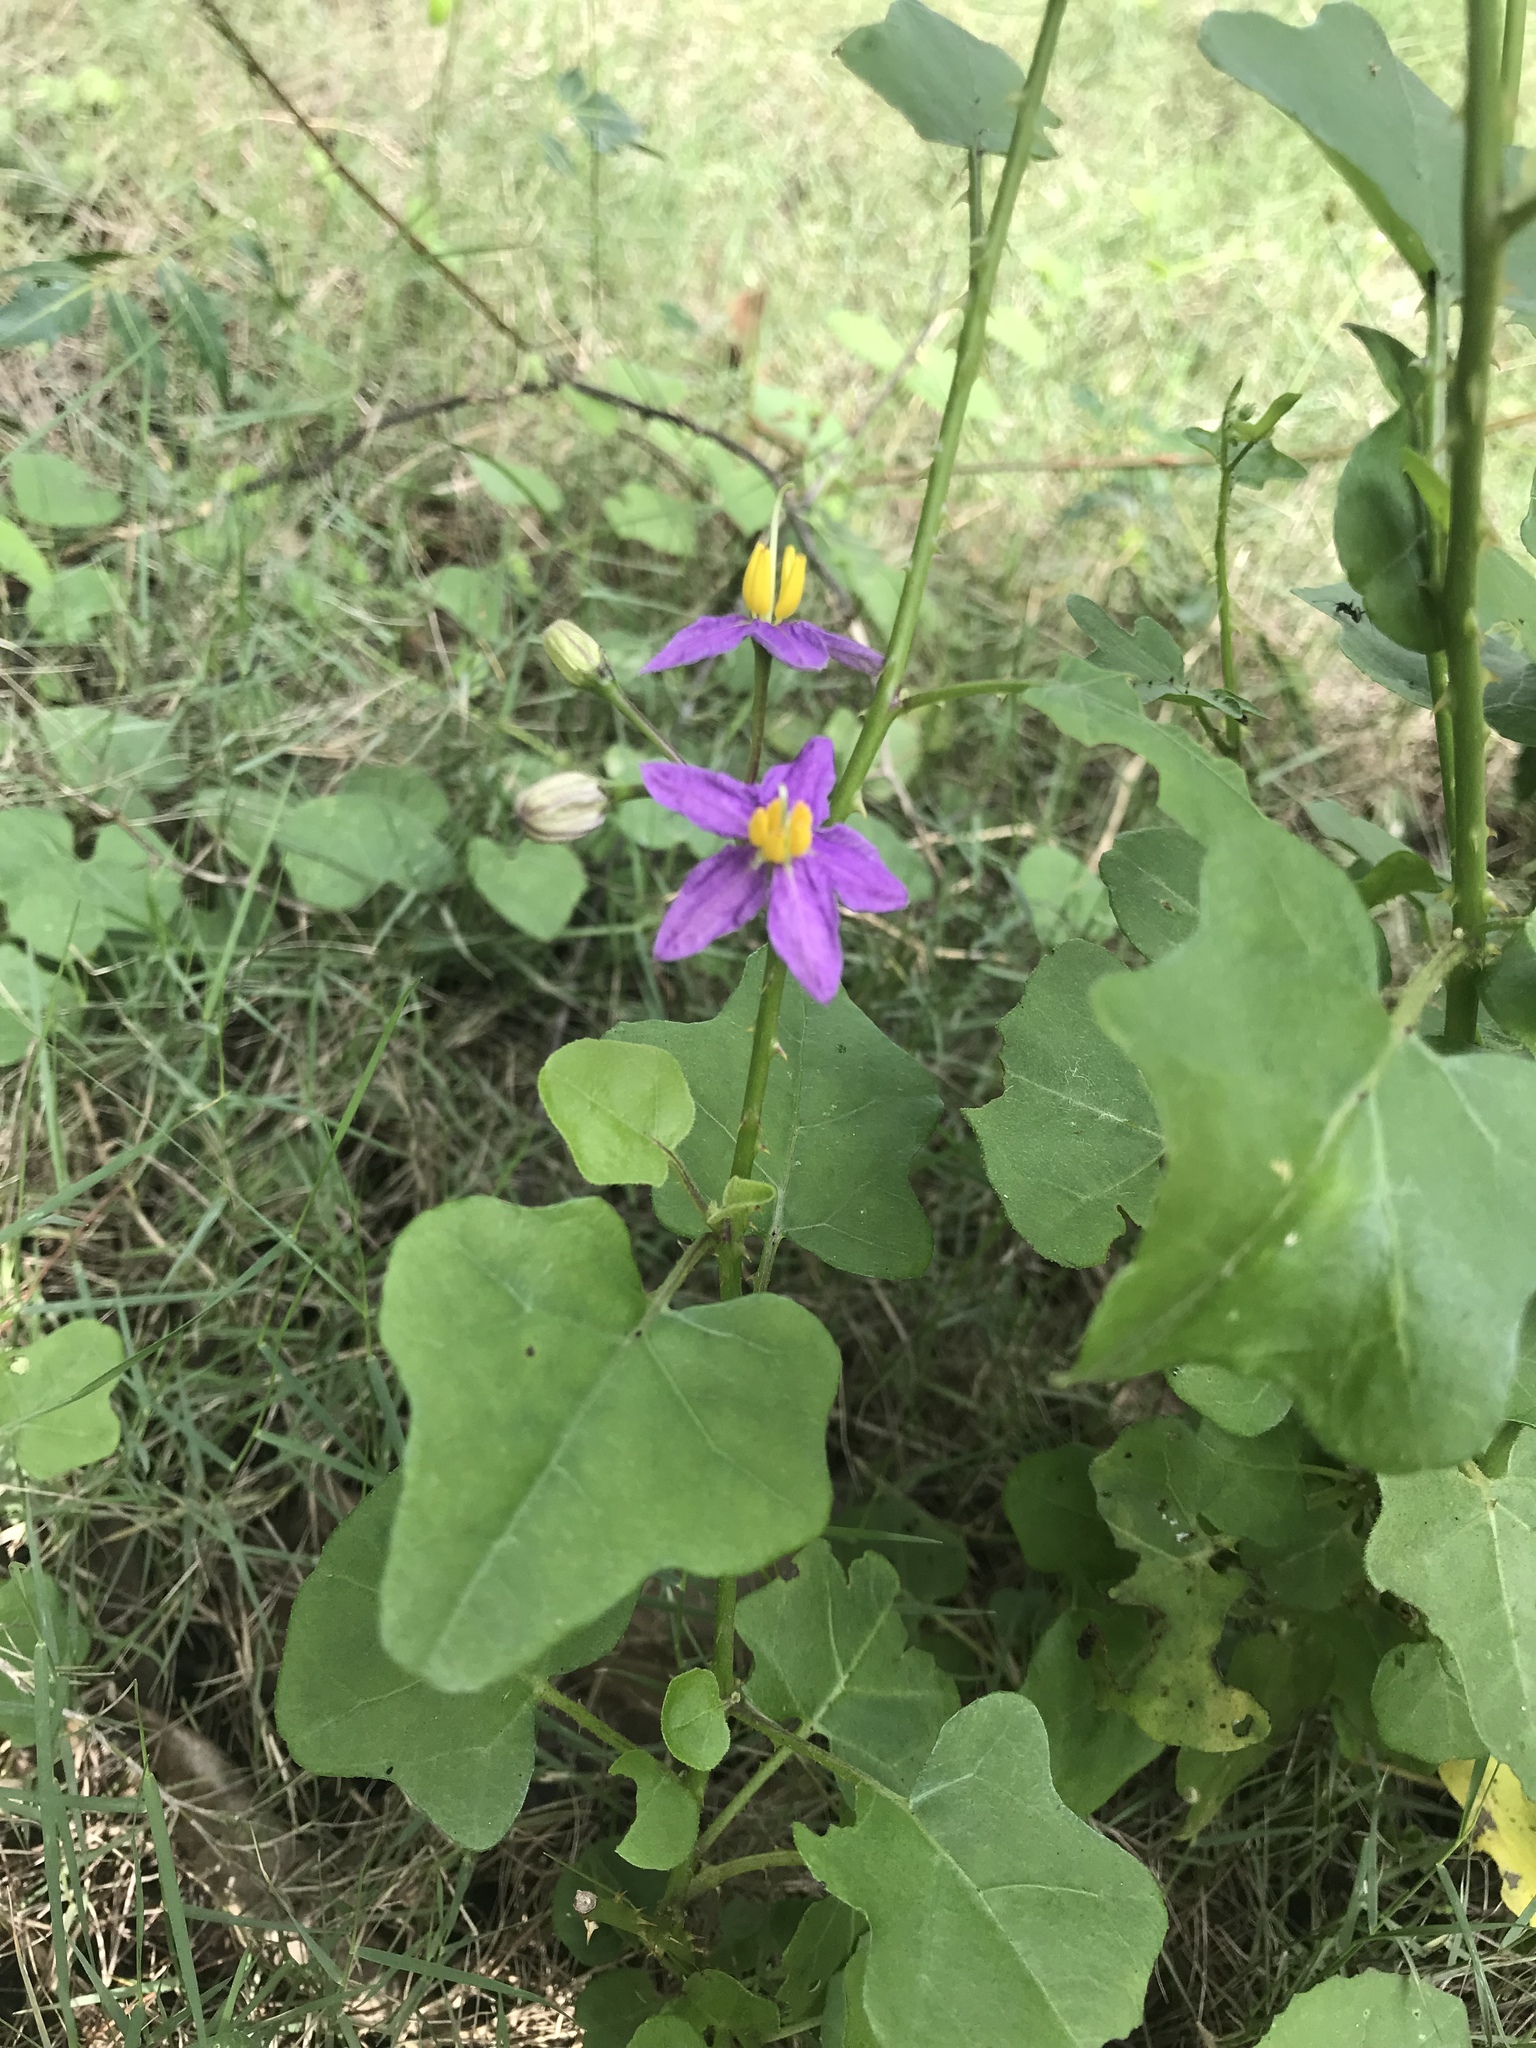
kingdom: Plantae
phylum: Tracheophyta
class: Magnoliopsida
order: Solanales
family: Solanaceae
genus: Solanum
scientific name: Solanum trilobatum
